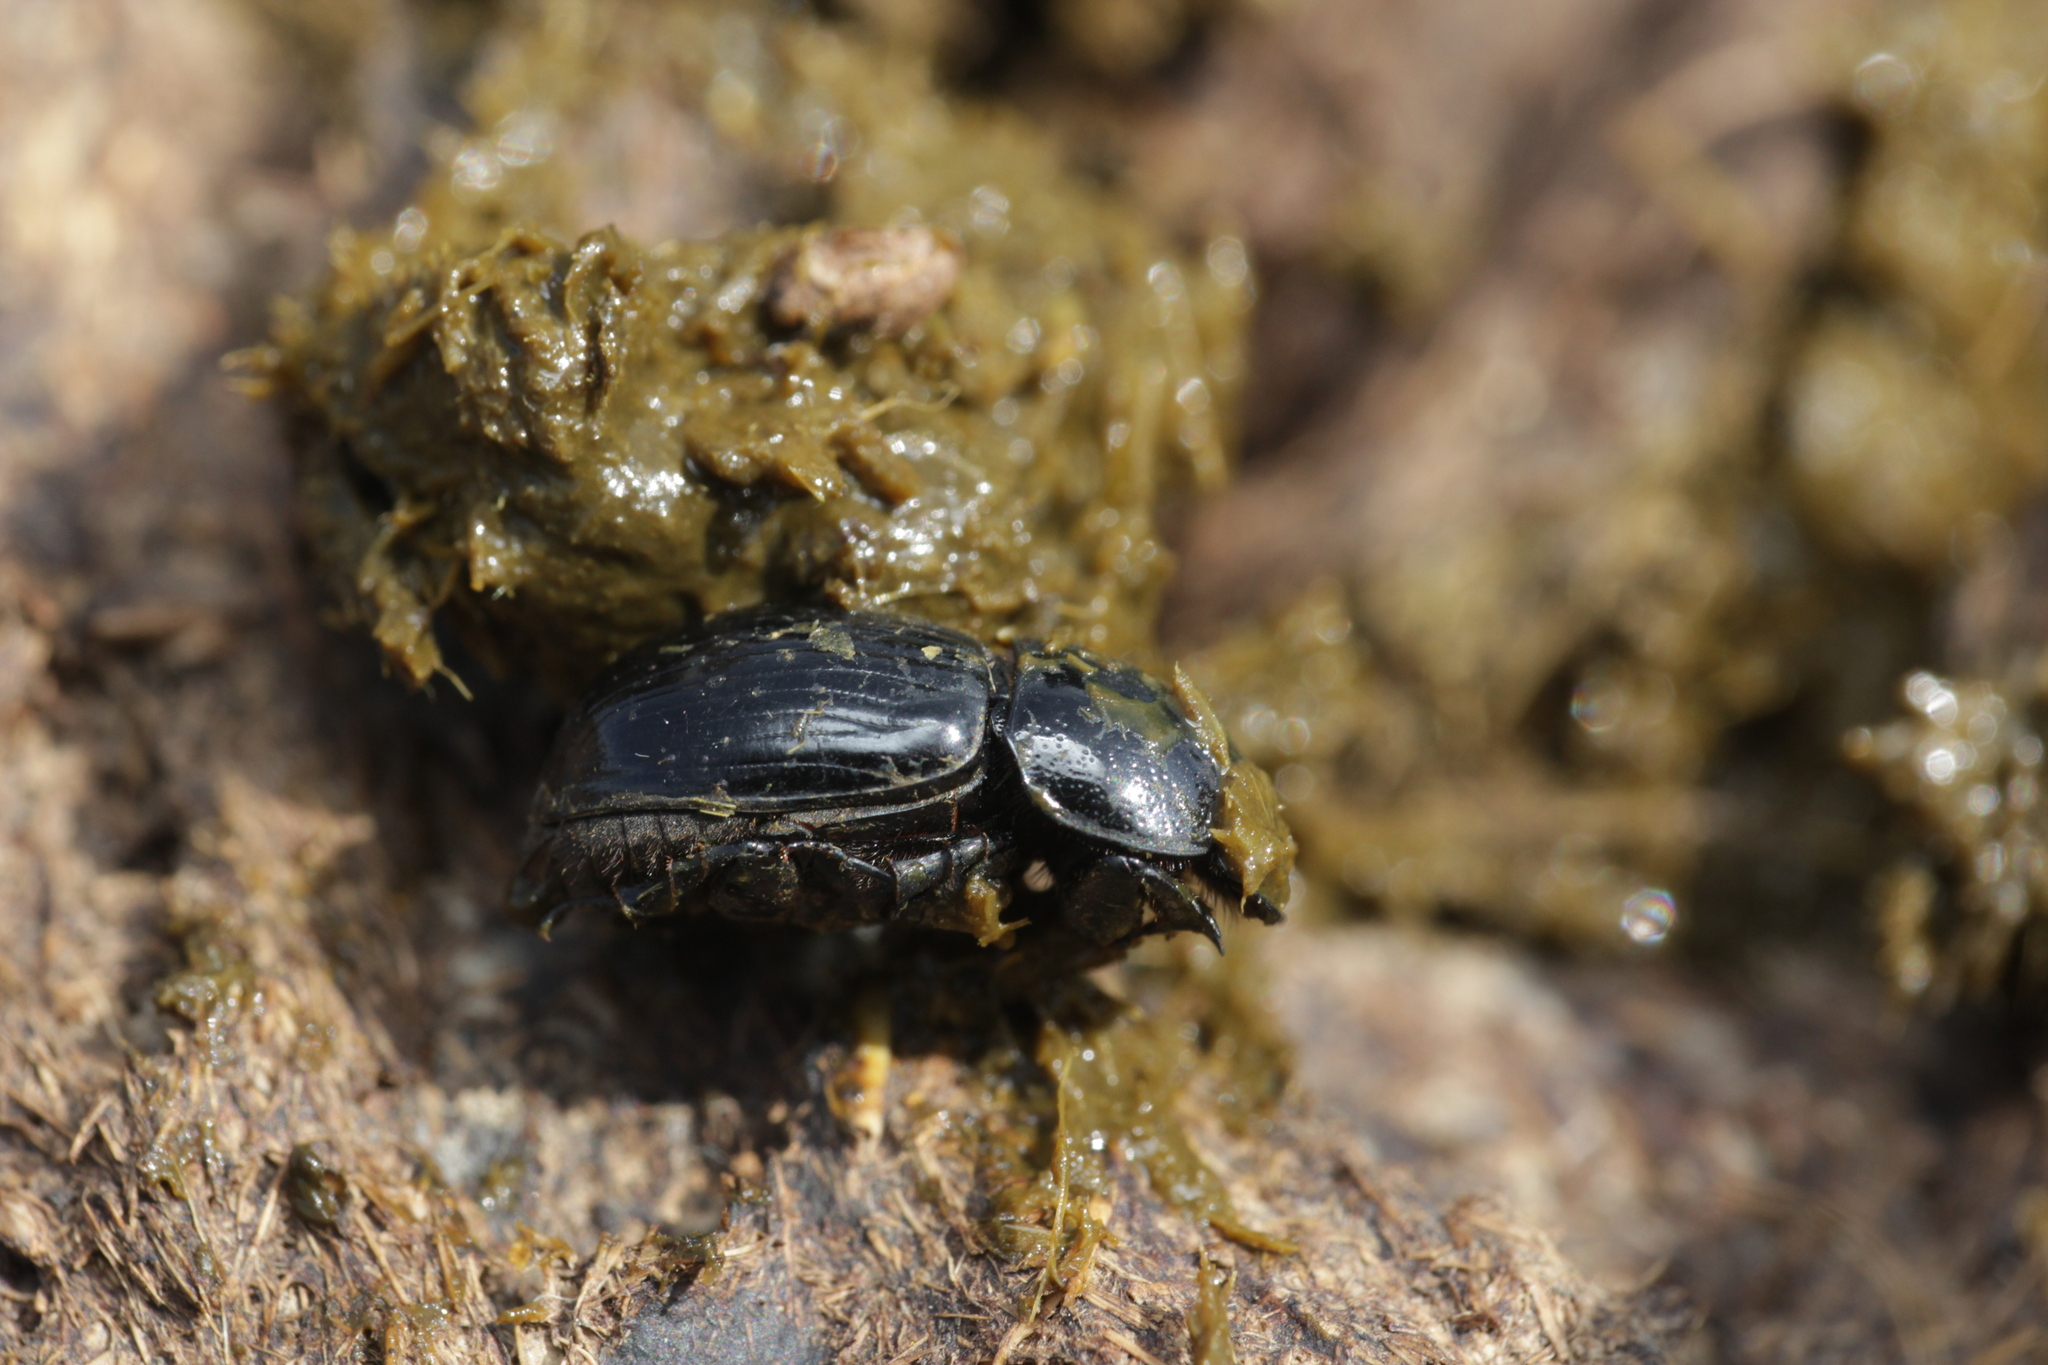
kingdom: Animalia
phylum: Arthropoda
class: Insecta
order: Coleoptera
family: Scarabaeidae
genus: Teuchestes
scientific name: Teuchestes fossor
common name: Digger small dung beetle
